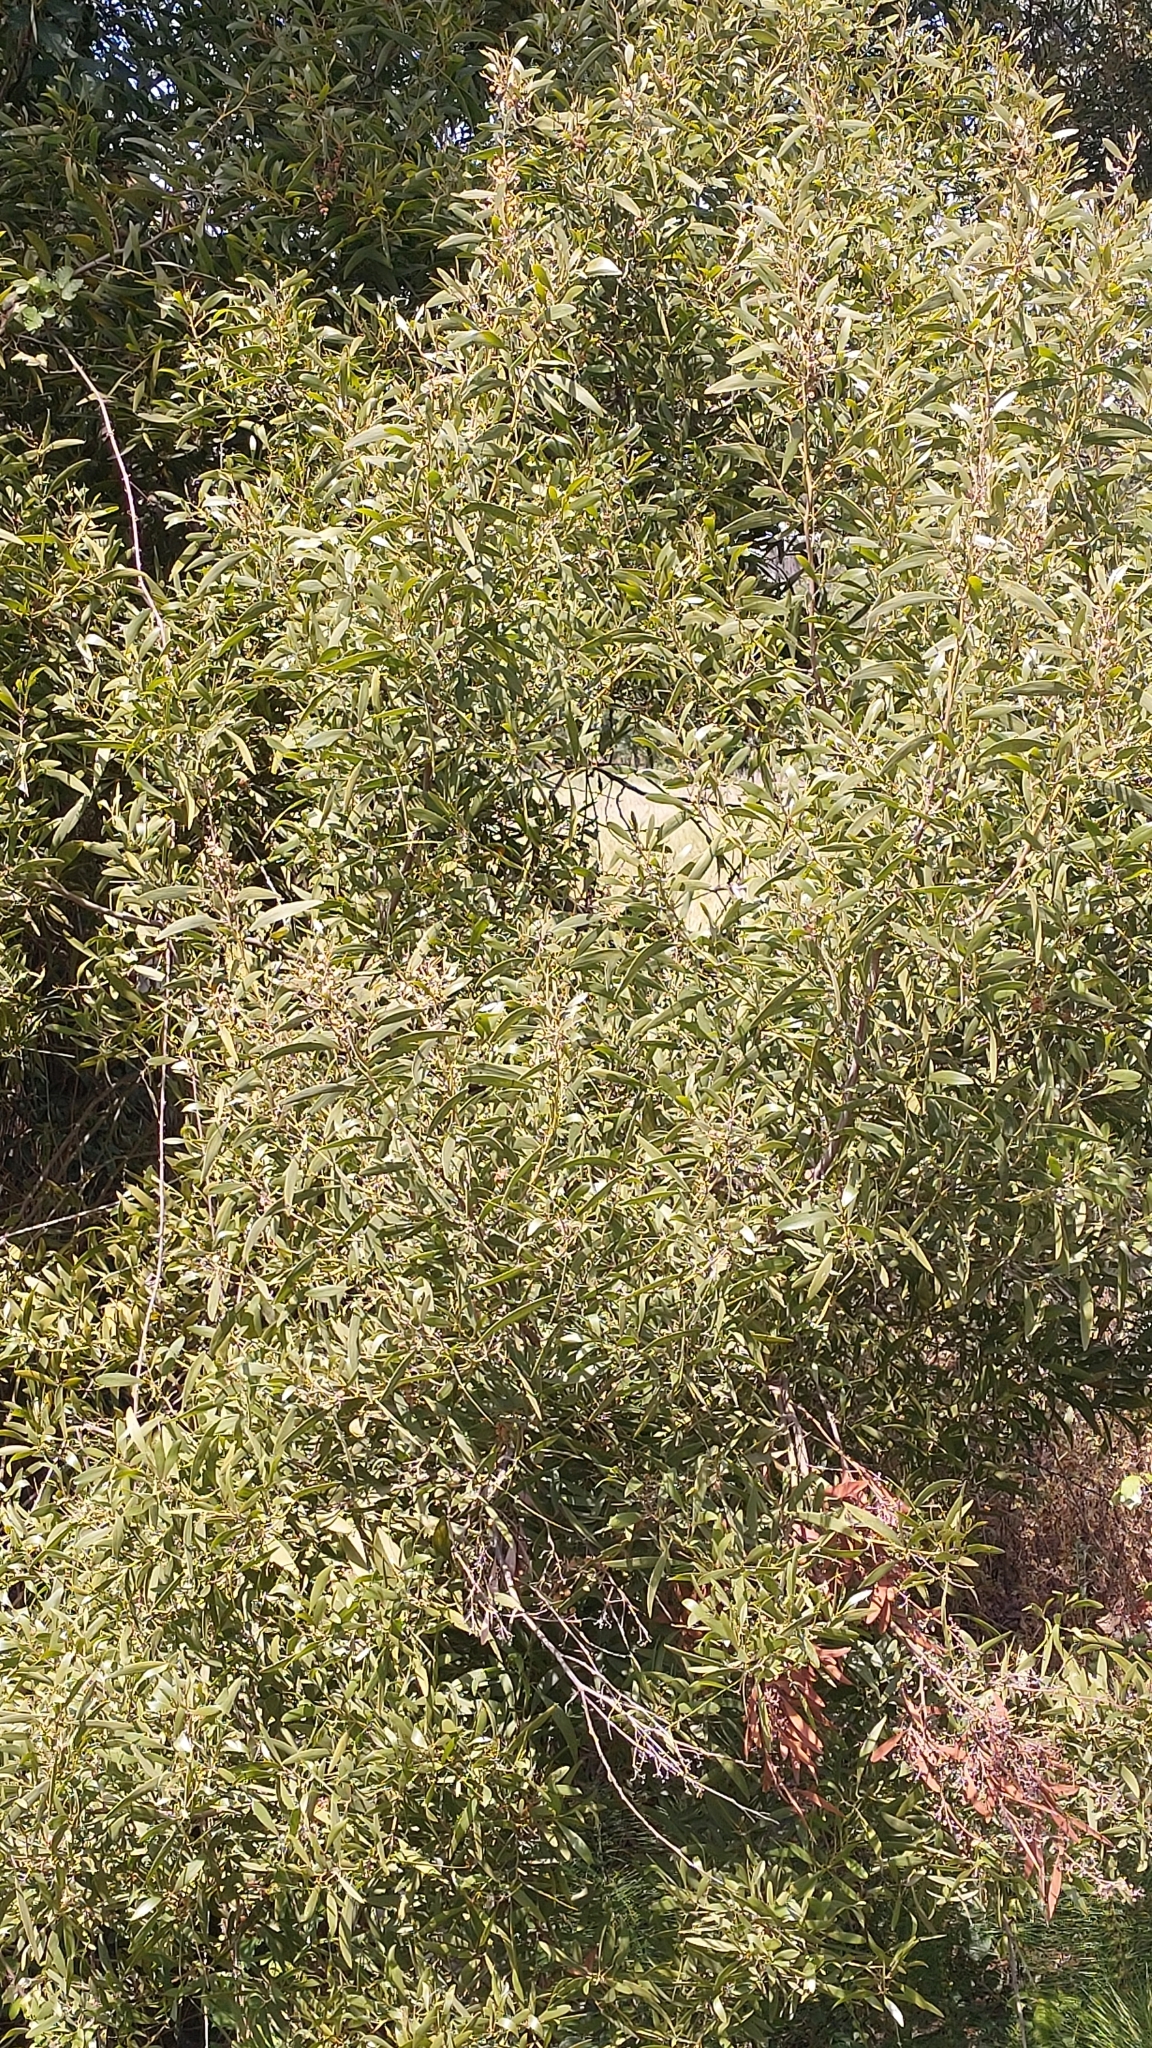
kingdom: Plantae
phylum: Tracheophyta
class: Magnoliopsida
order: Fabales
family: Fabaceae
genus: Acacia
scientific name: Acacia melanoxylon
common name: Blackwood
